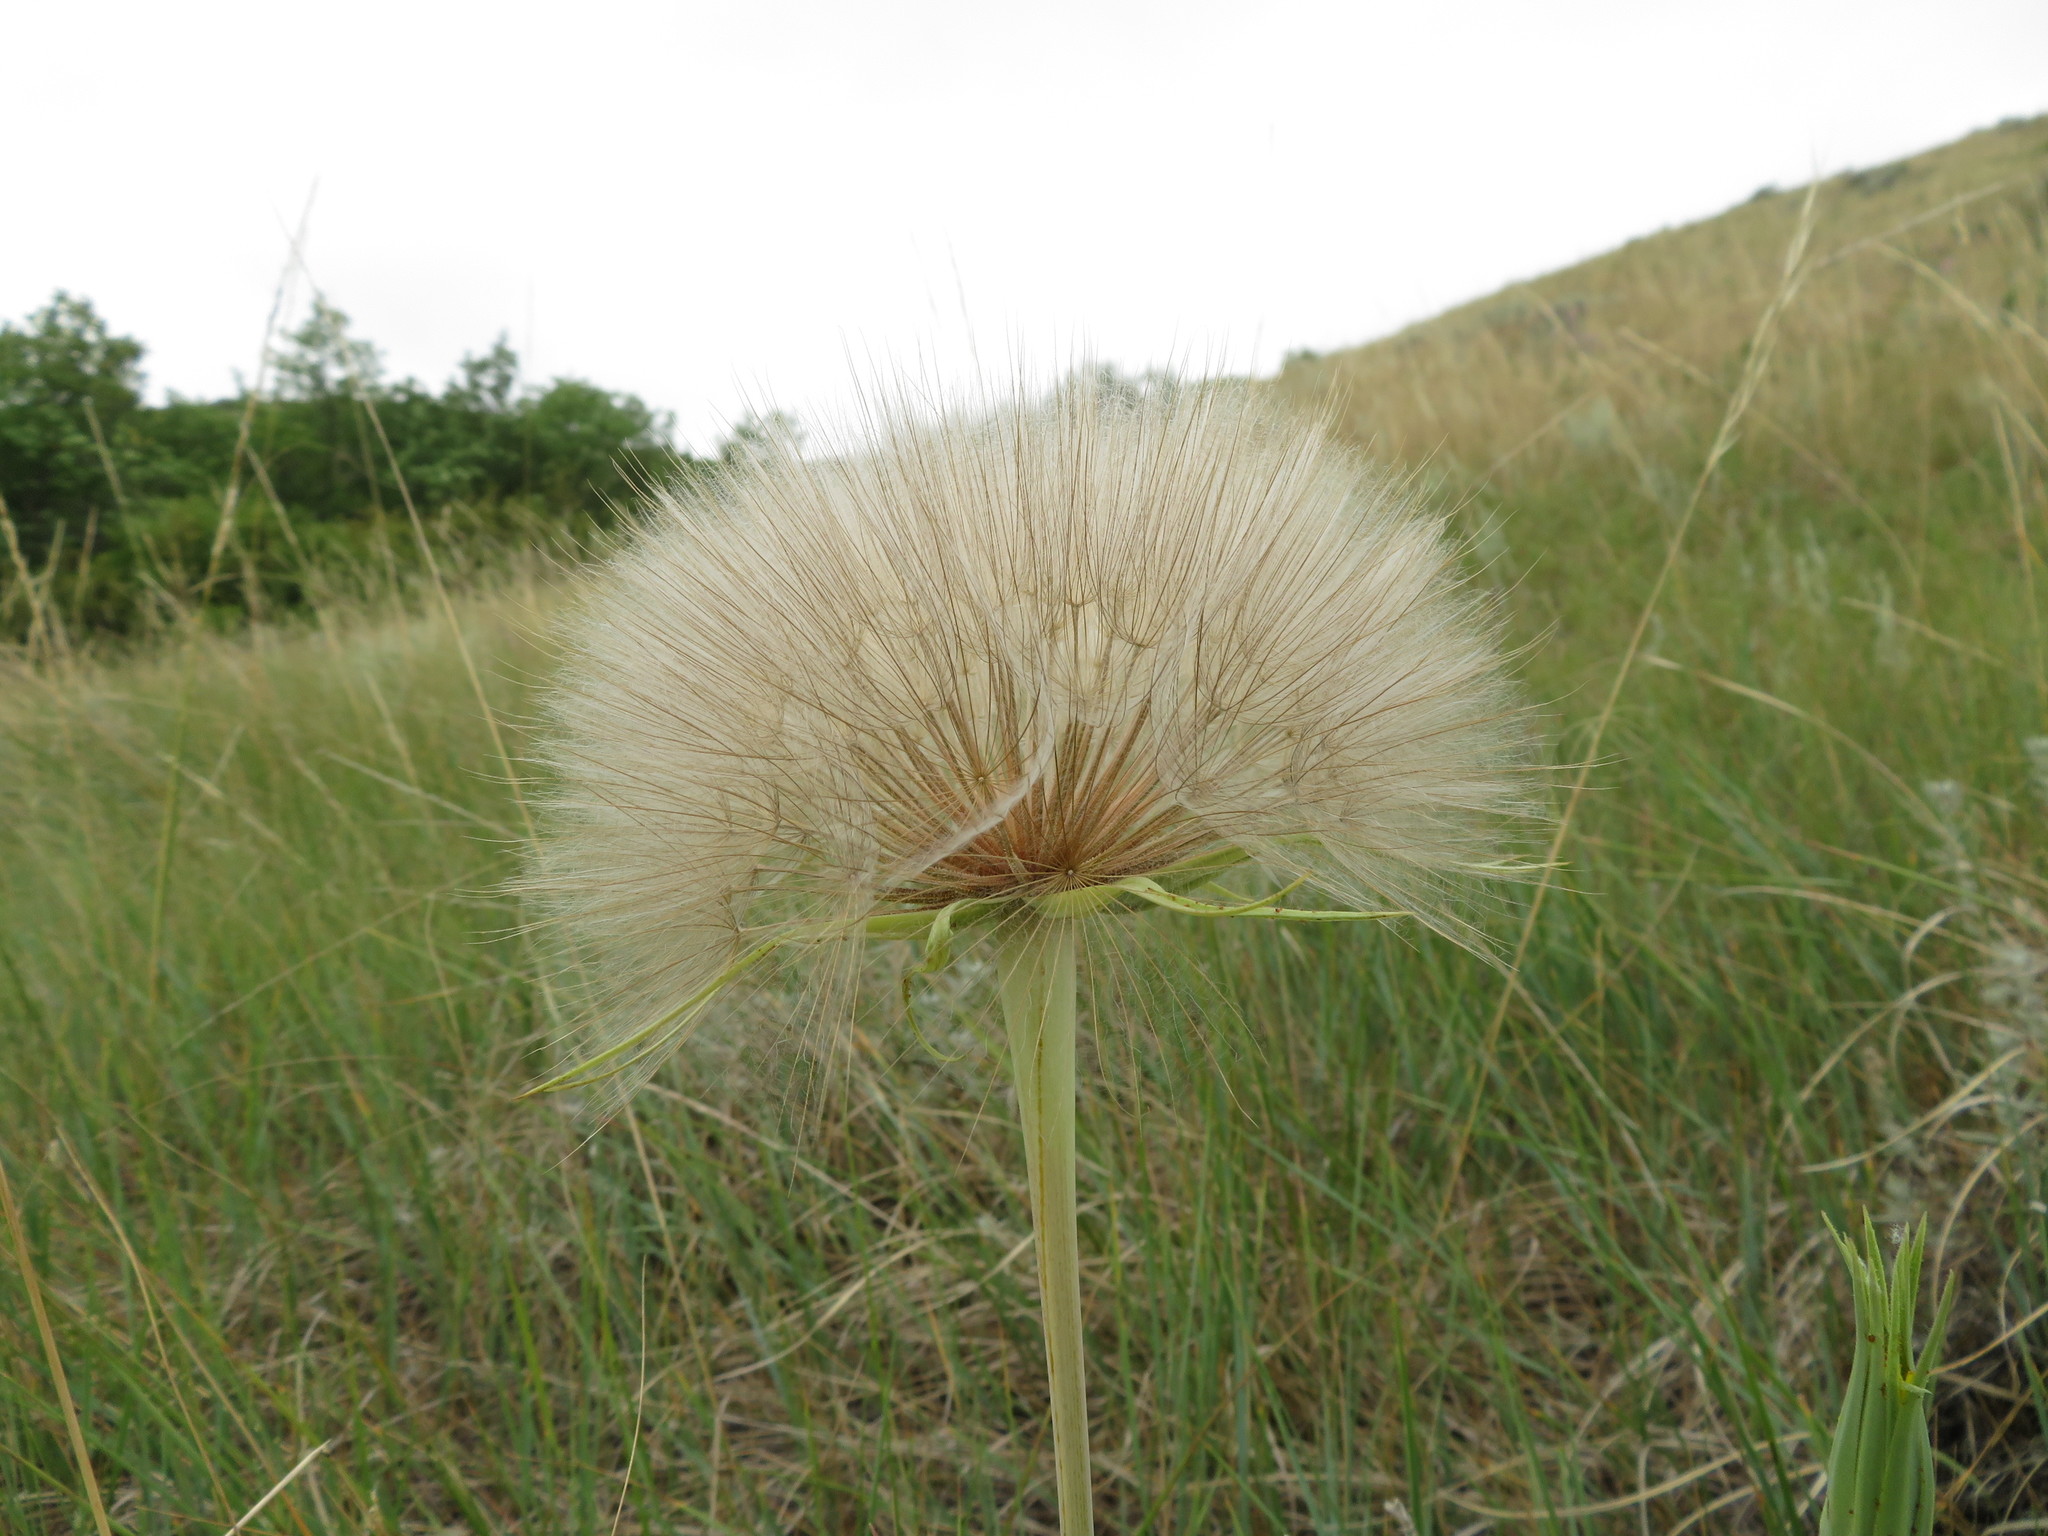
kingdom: Plantae
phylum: Tracheophyta
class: Magnoliopsida
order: Asterales
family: Asteraceae
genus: Tragopogon
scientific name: Tragopogon dubius
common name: Yellow salsify
